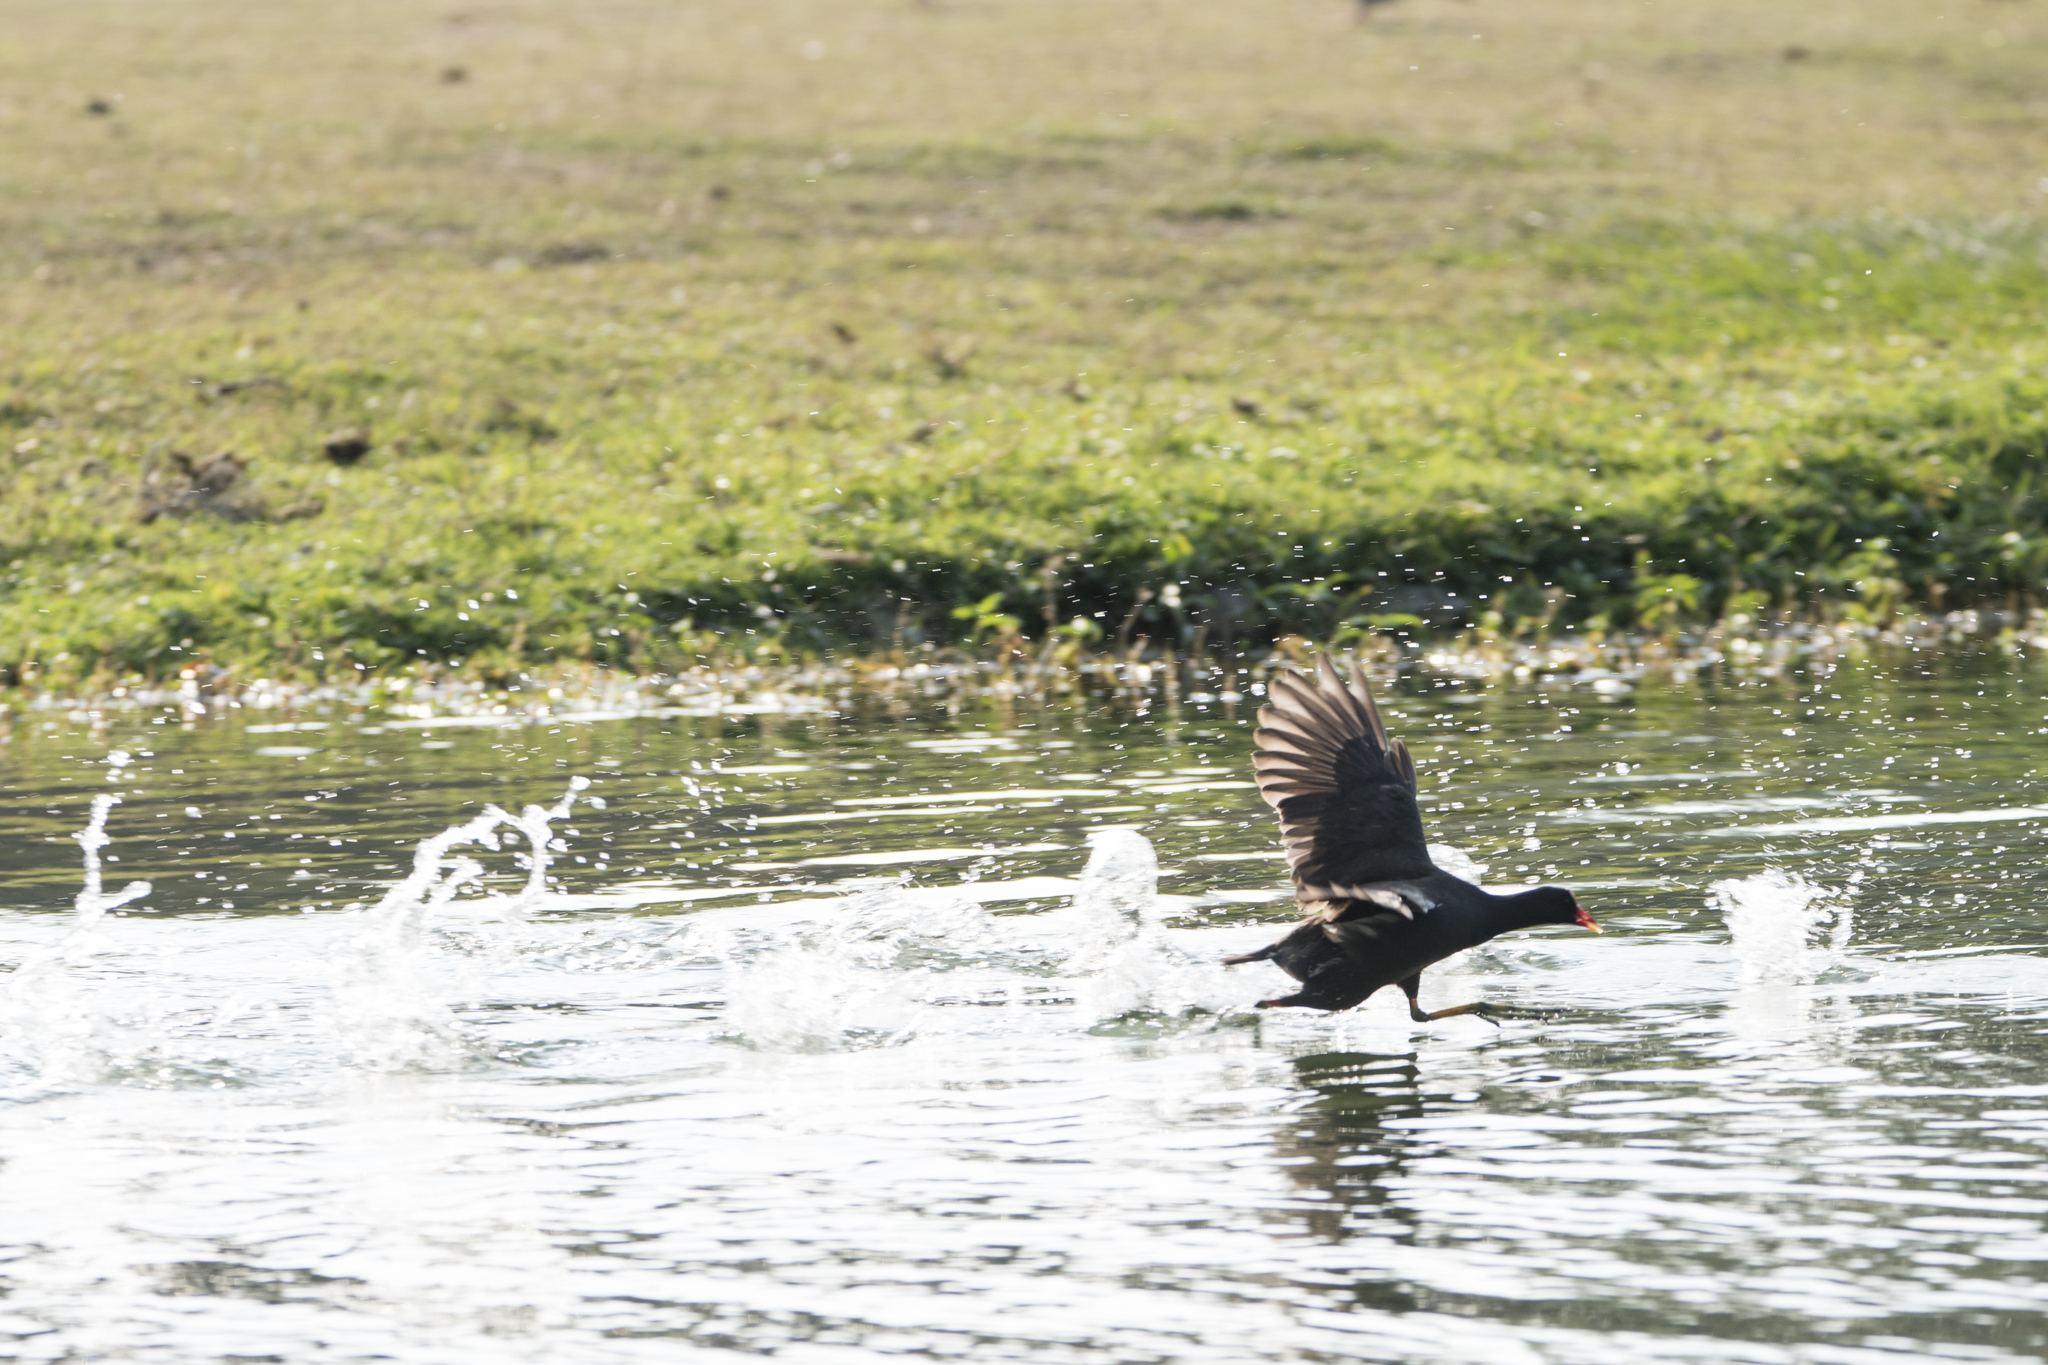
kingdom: Animalia
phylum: Chordata
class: Aves
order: Gruiformes
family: Rallidae
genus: Gallinula
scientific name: Gallinula chloropus
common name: Common moorhen
